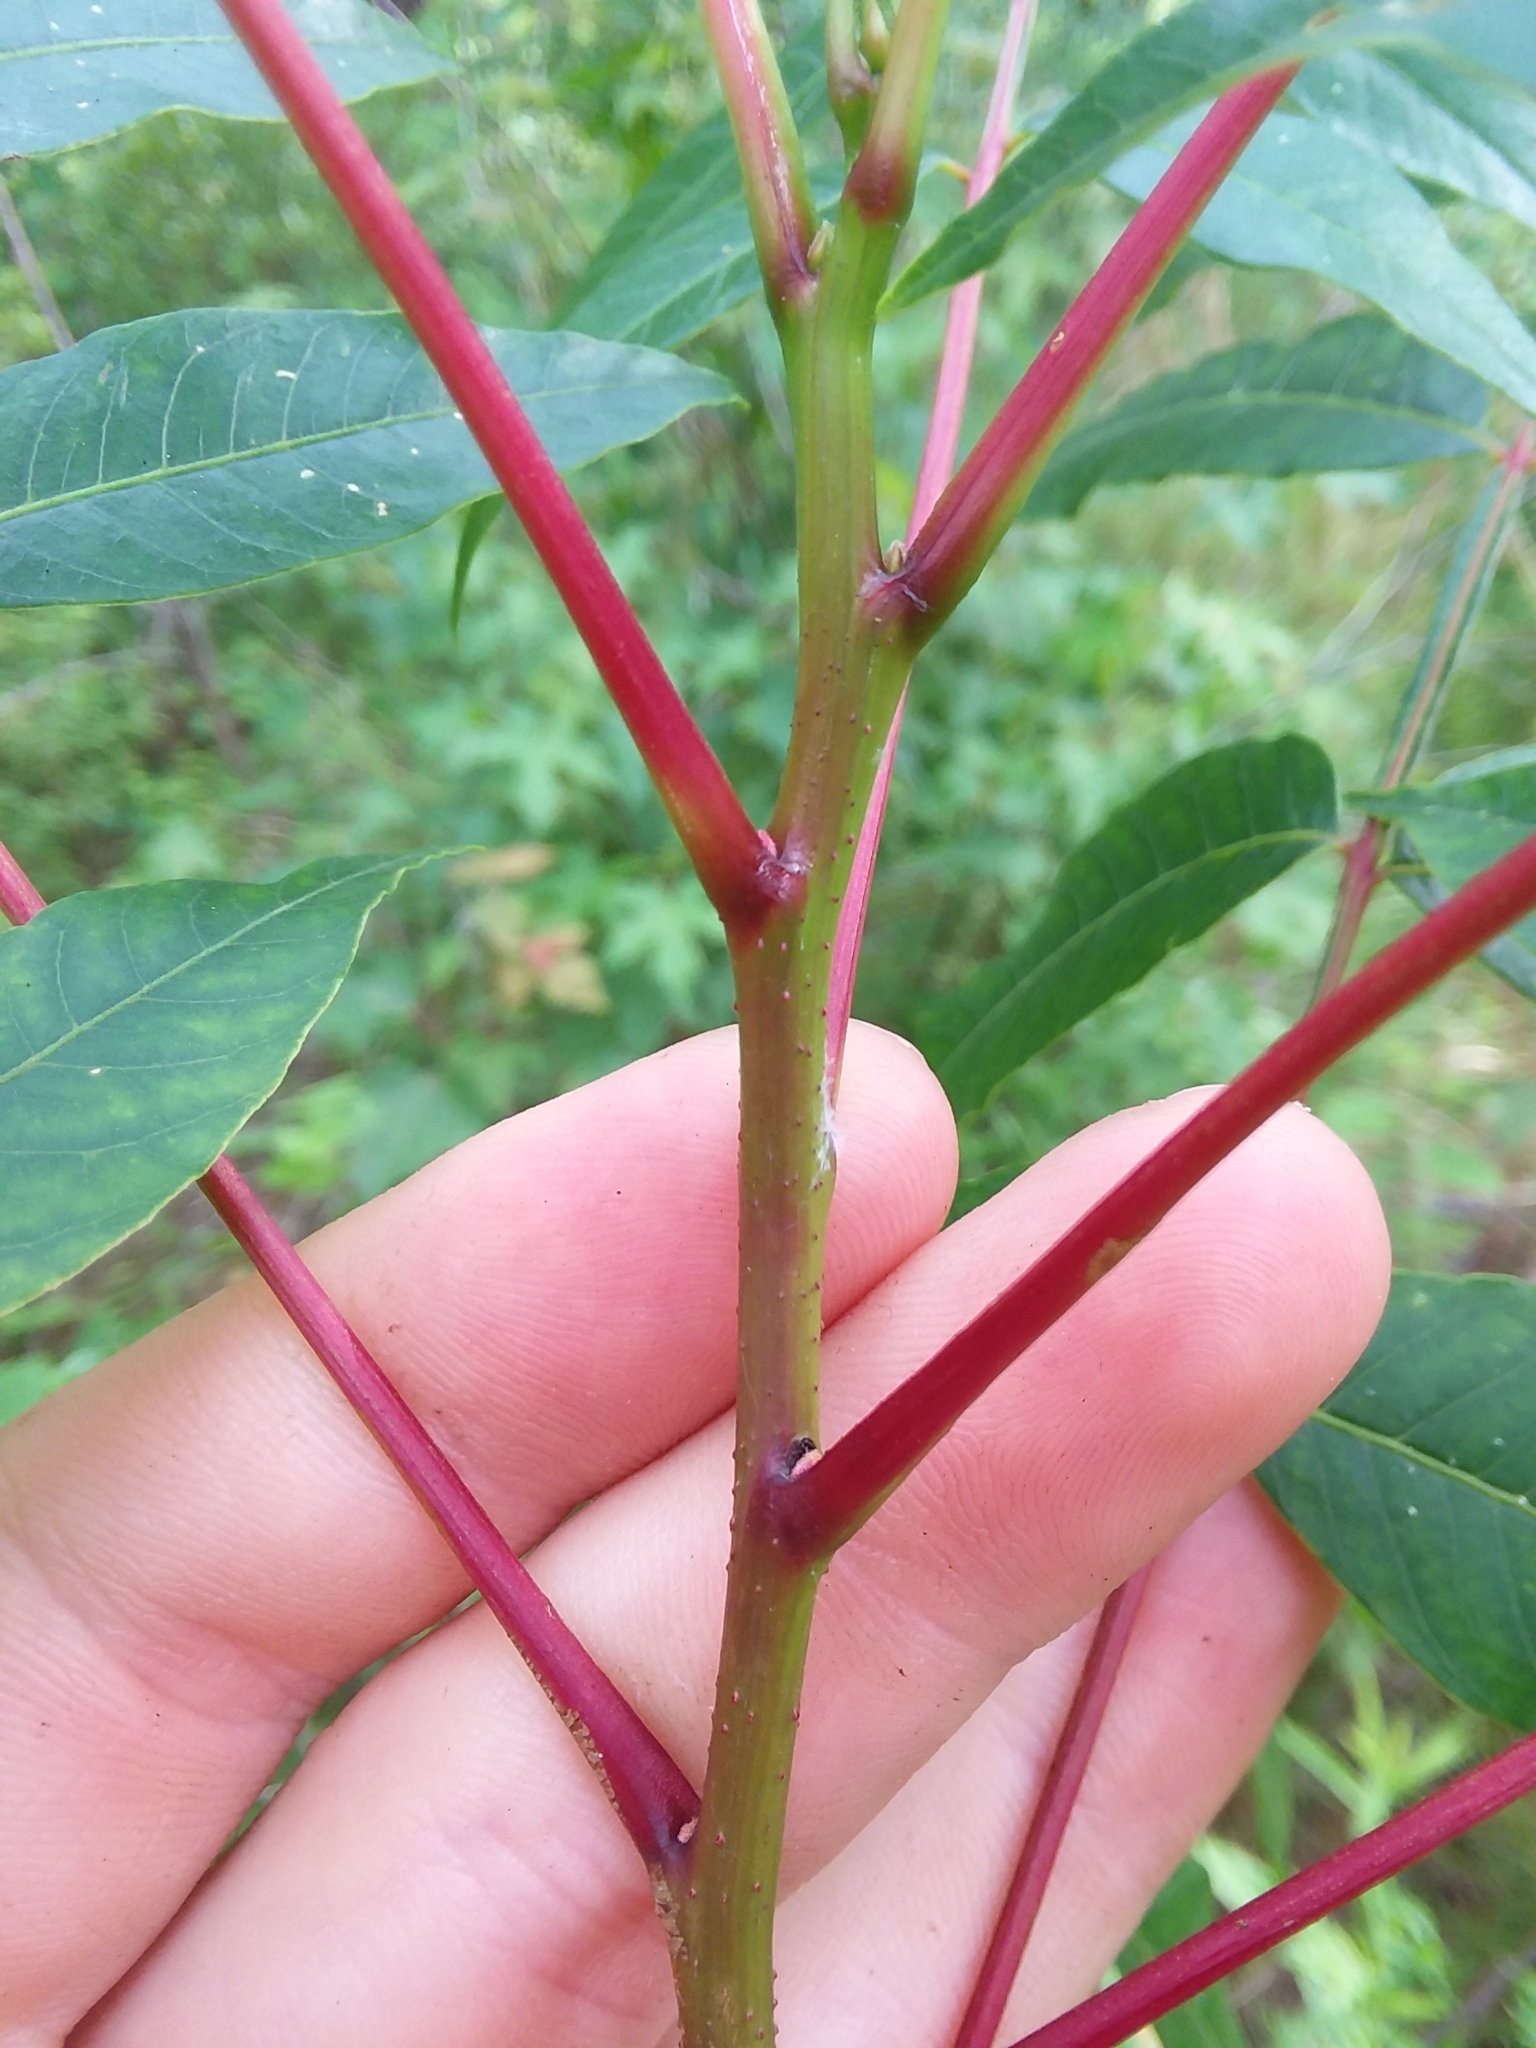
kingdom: Plantae
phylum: Tracheophyta
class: Magnoliopsida
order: Sapindales
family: Anacardiaceae
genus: Rhus
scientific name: Rhus copallina
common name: Shining sumac
